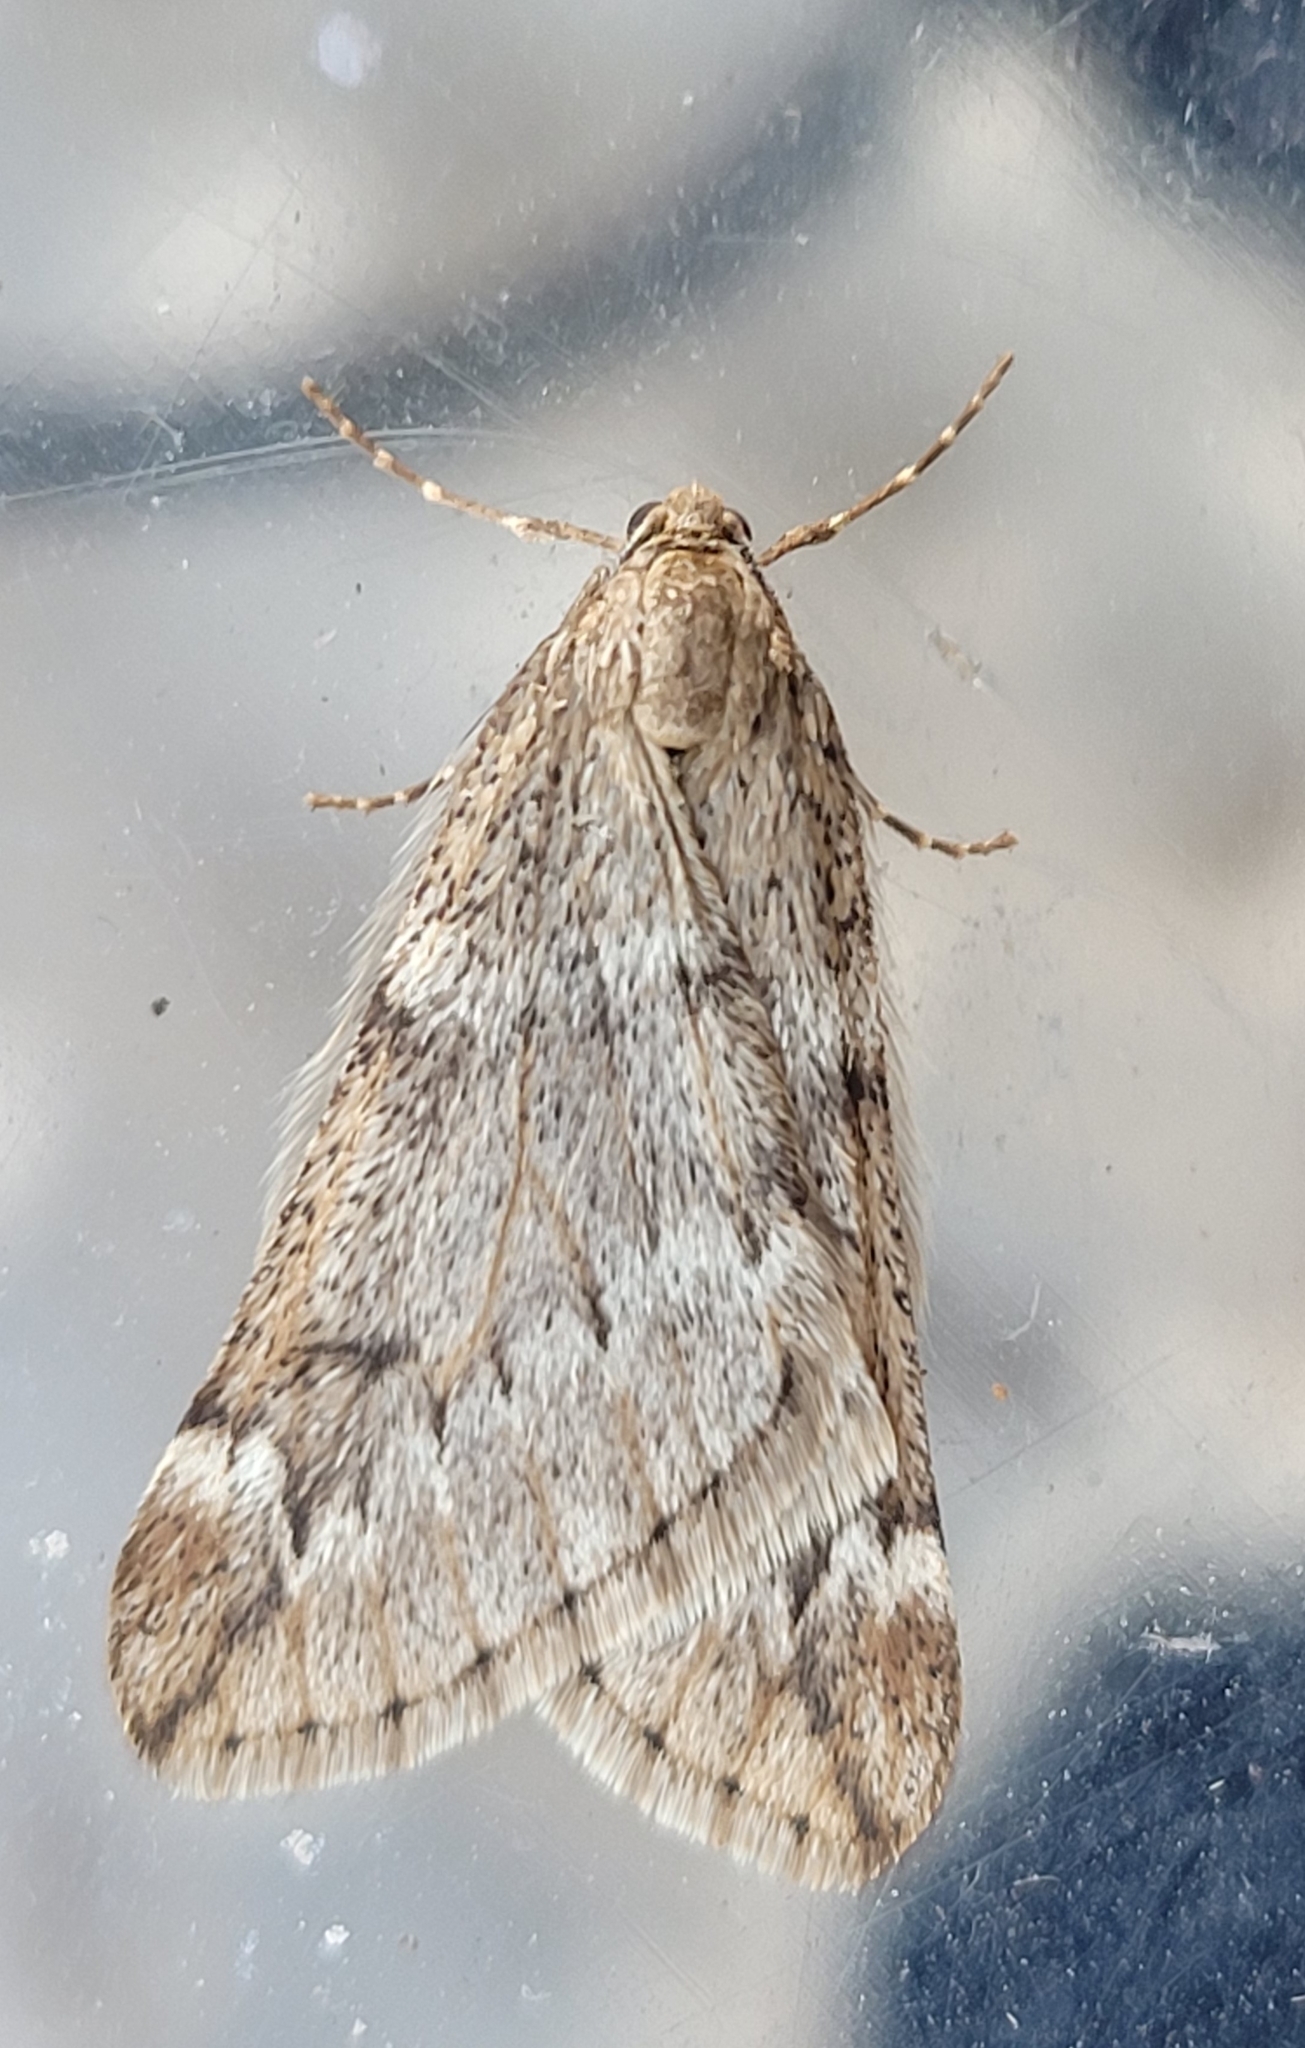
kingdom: Animalia
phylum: Arthropoda
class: Insecta
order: Lepidoptera
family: Geometridae
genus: Alsophila
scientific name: Alsophila aescularia
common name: March moth
